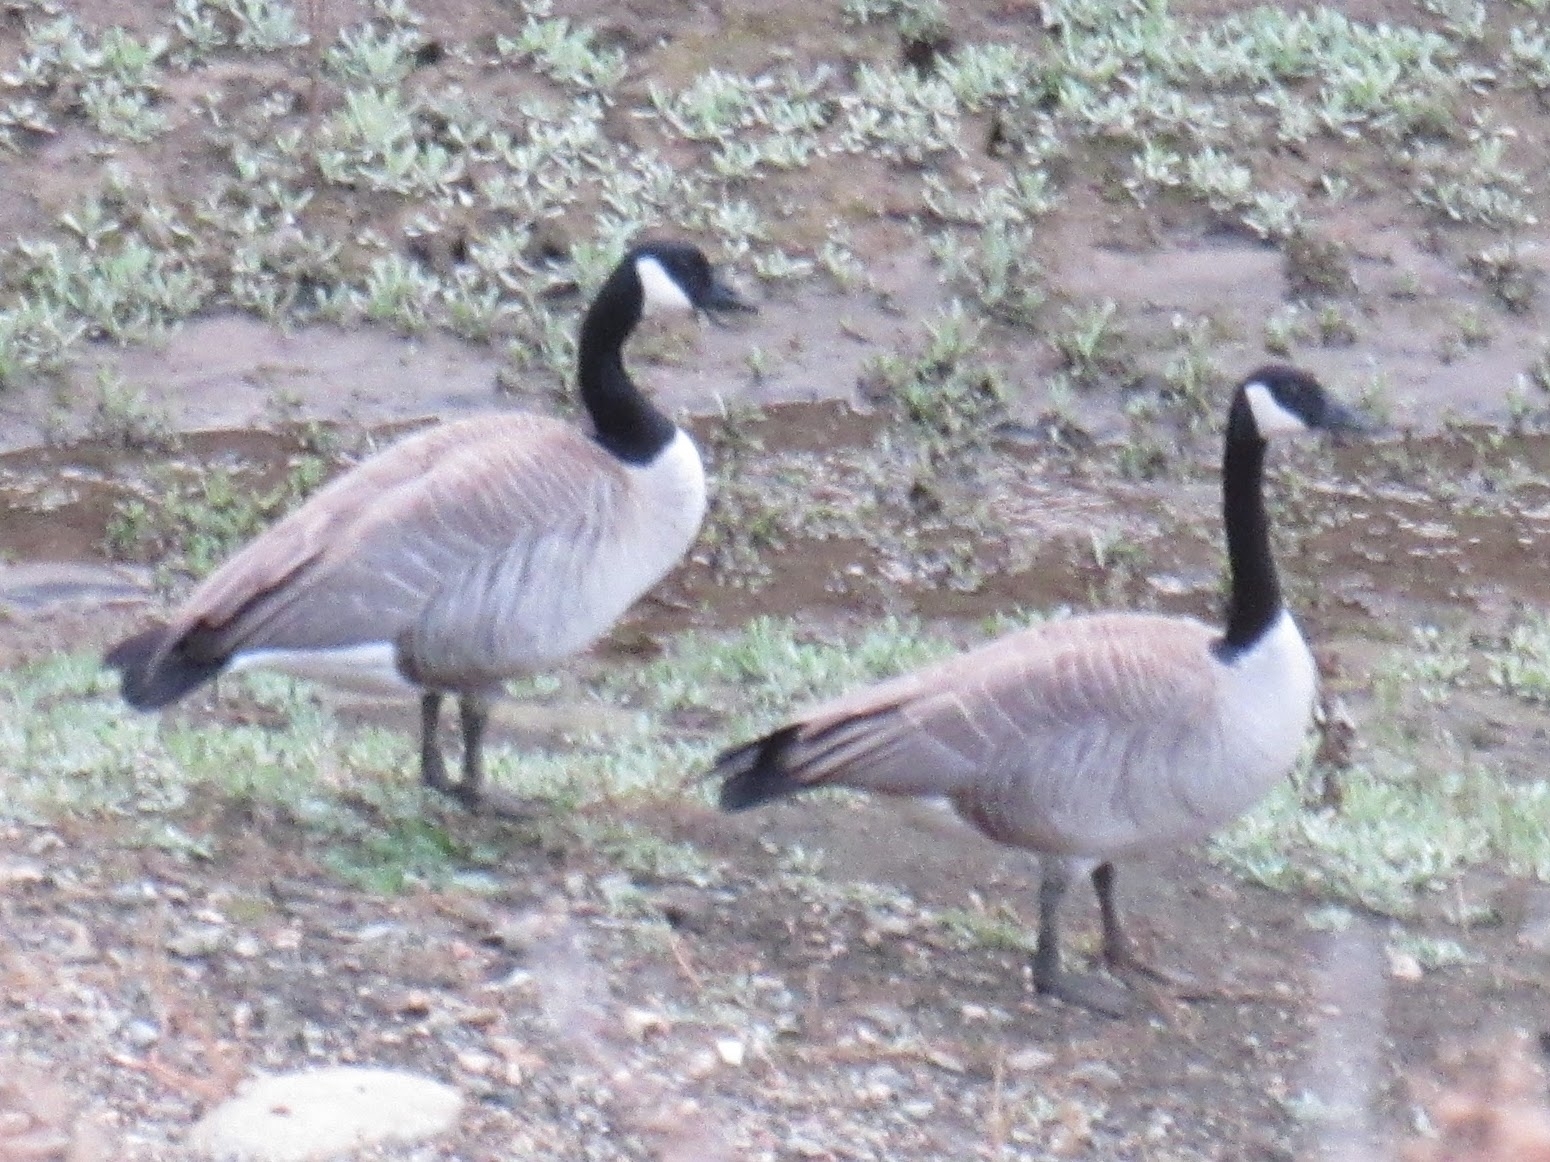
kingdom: Animalia
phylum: Chordata
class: Aves
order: Anseriformes
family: Anatidae
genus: Branta
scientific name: Branta canadensis
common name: Canada goose
